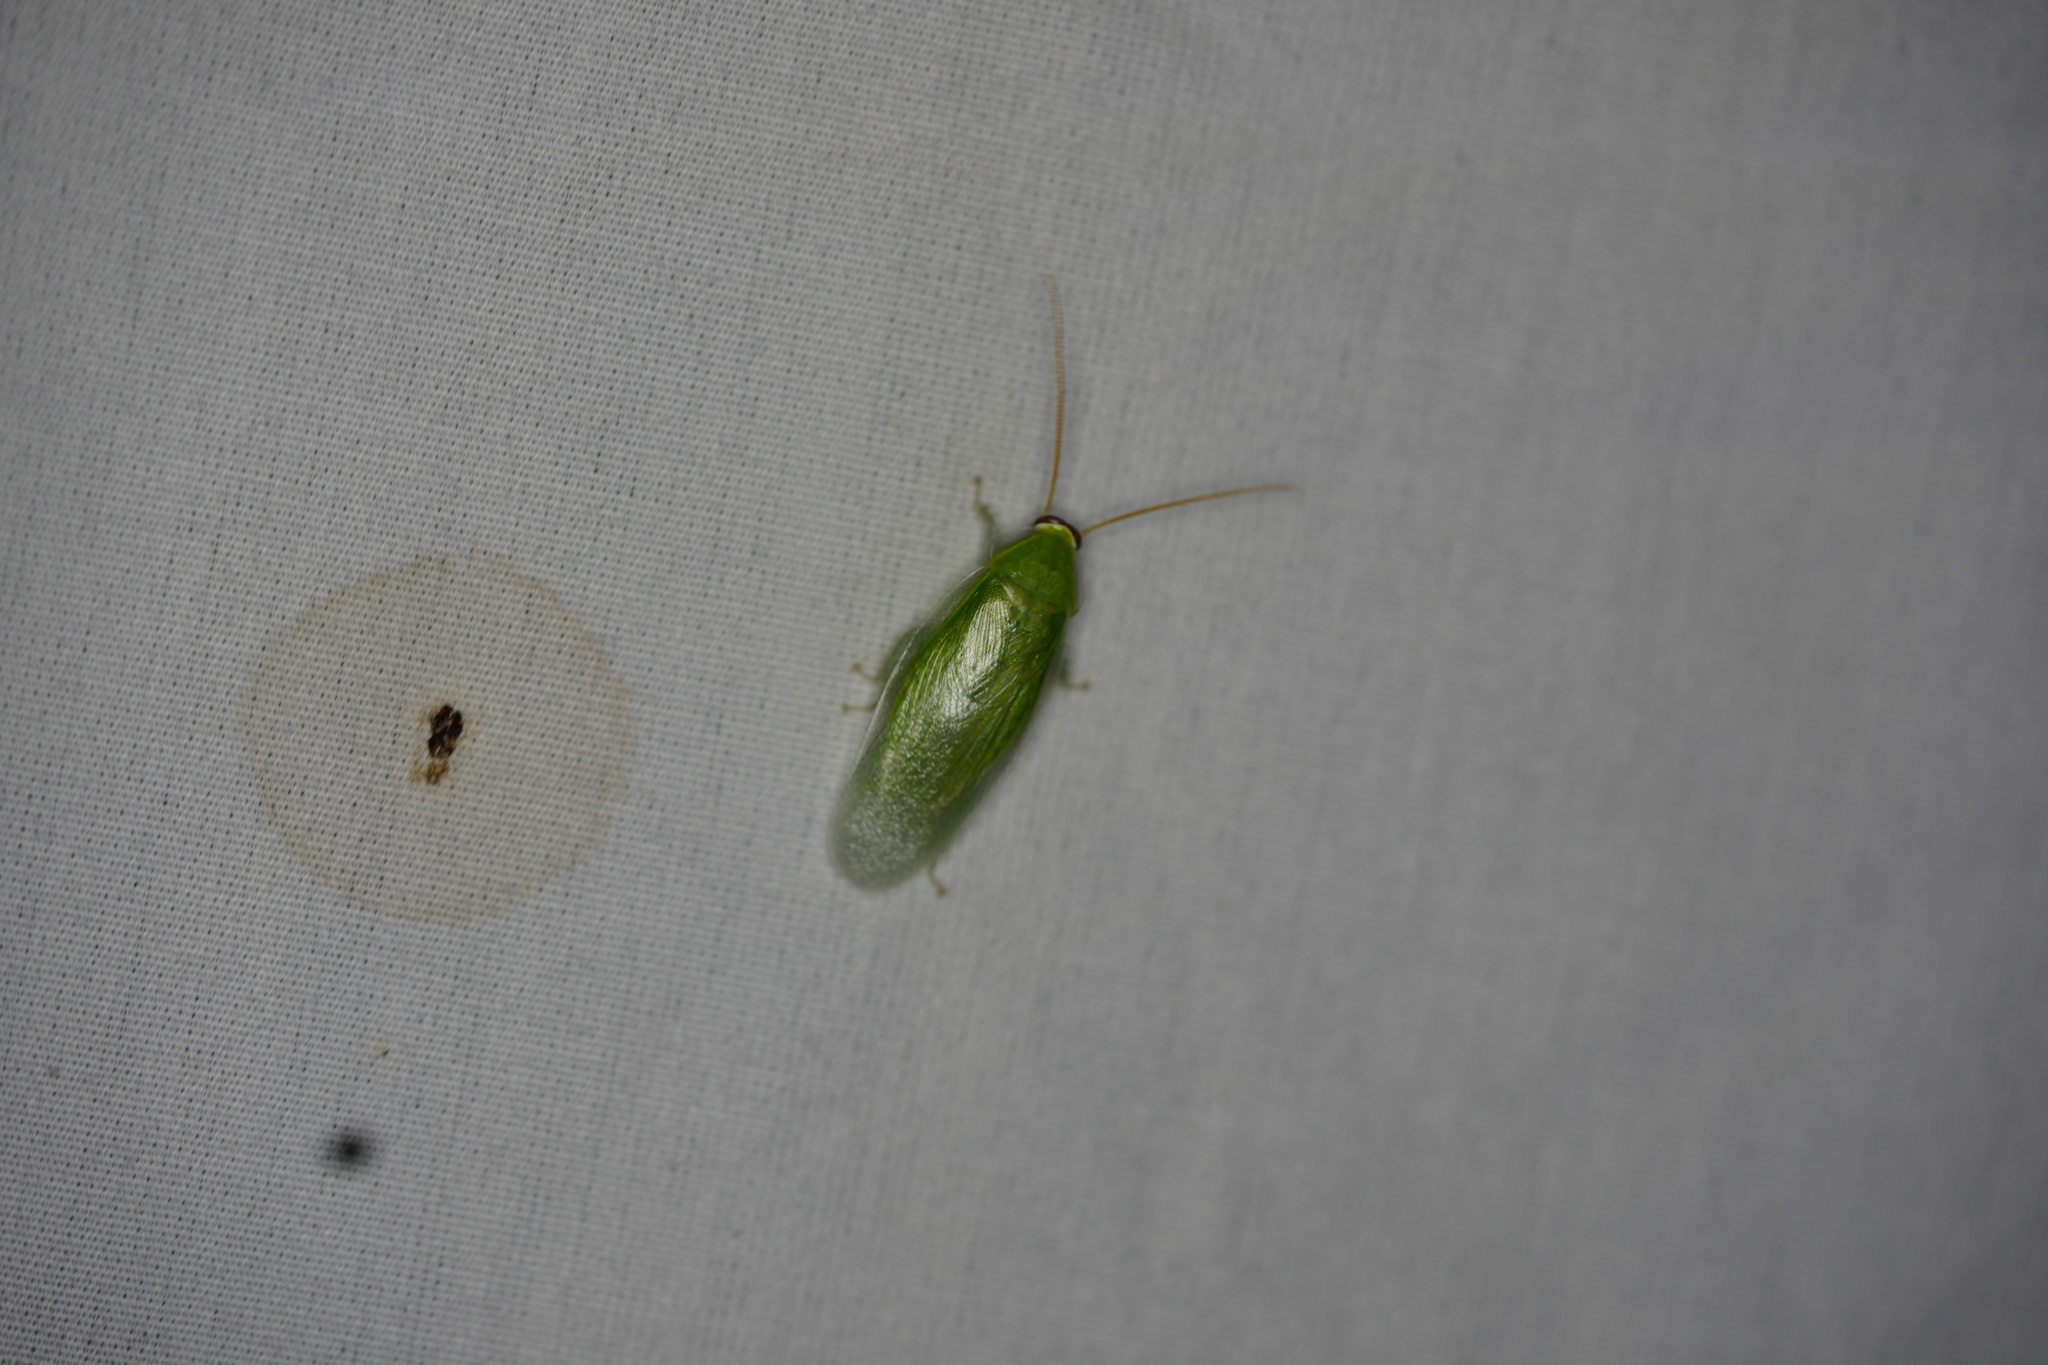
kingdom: Animalia
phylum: Arthropoda
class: Insecta
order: Blattodea
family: Blaberidae
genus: Panchlora
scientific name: Panchlora nivea
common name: Cuban cockroach
